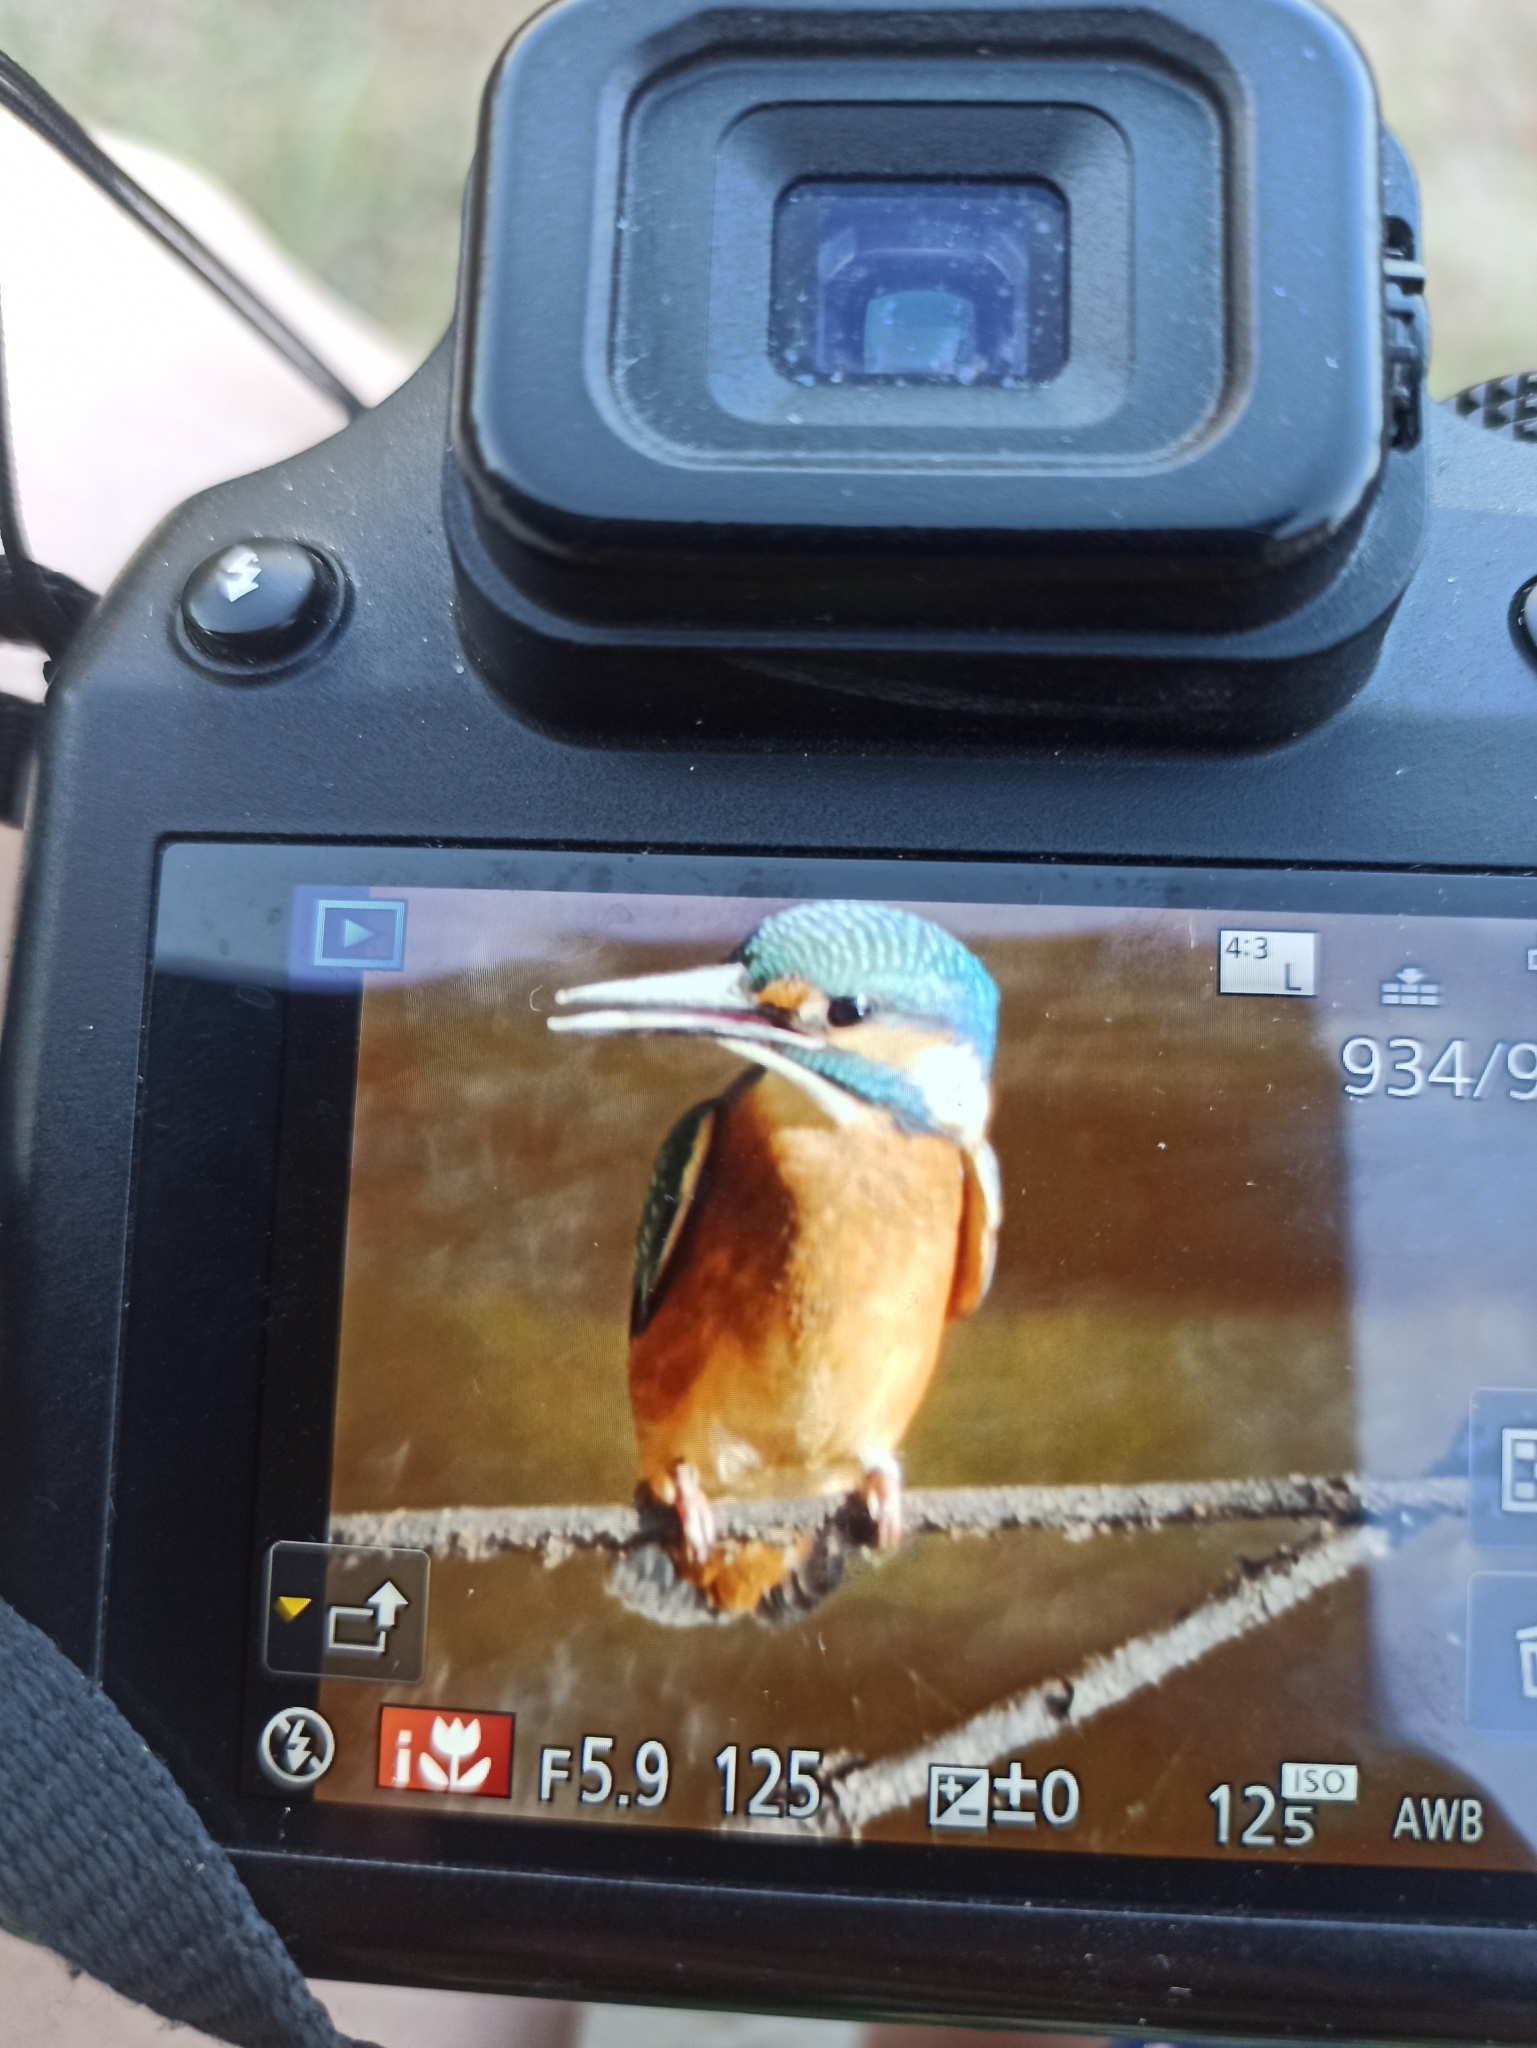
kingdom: Animalia
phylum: Chordata
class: Aves
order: Coraciiformes
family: Alcedinidae
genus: Alcedo
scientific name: Alcedo atthis
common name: Common kingfisher
